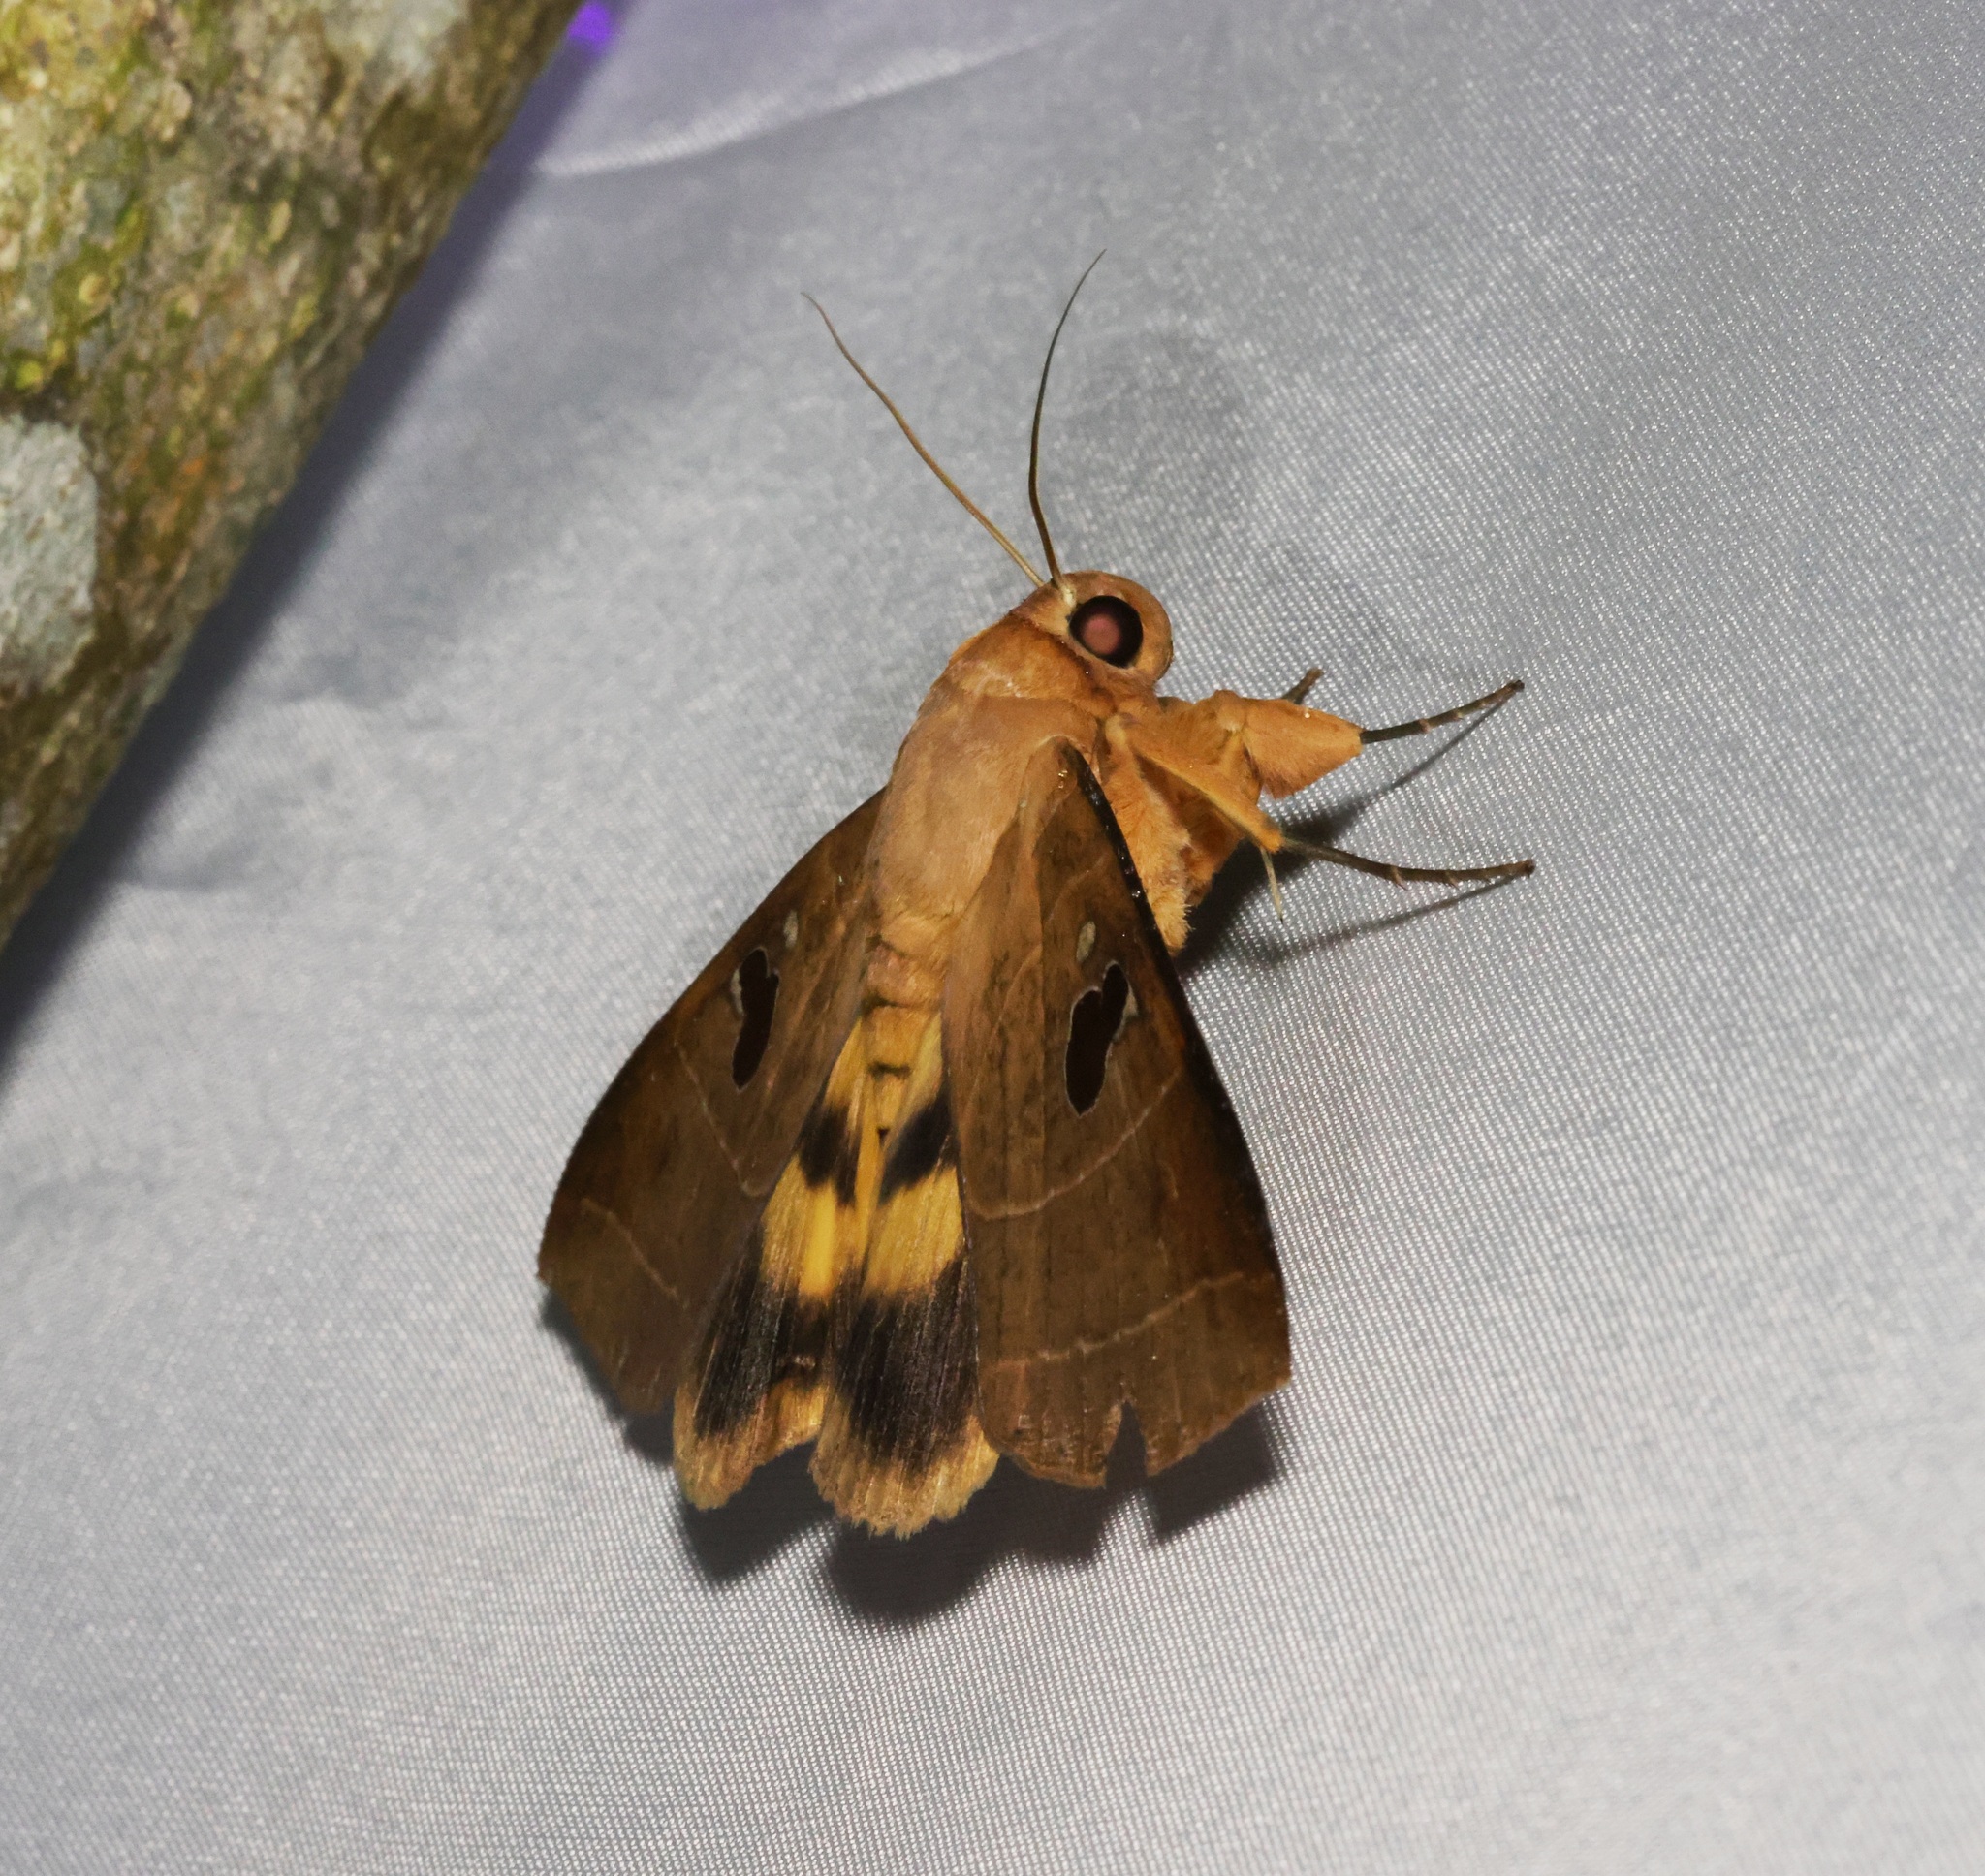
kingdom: Animalia
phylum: Arthropoda
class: Insecta
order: Lepidoptera
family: Erebidae
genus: Thyas
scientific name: Thyas coronata
